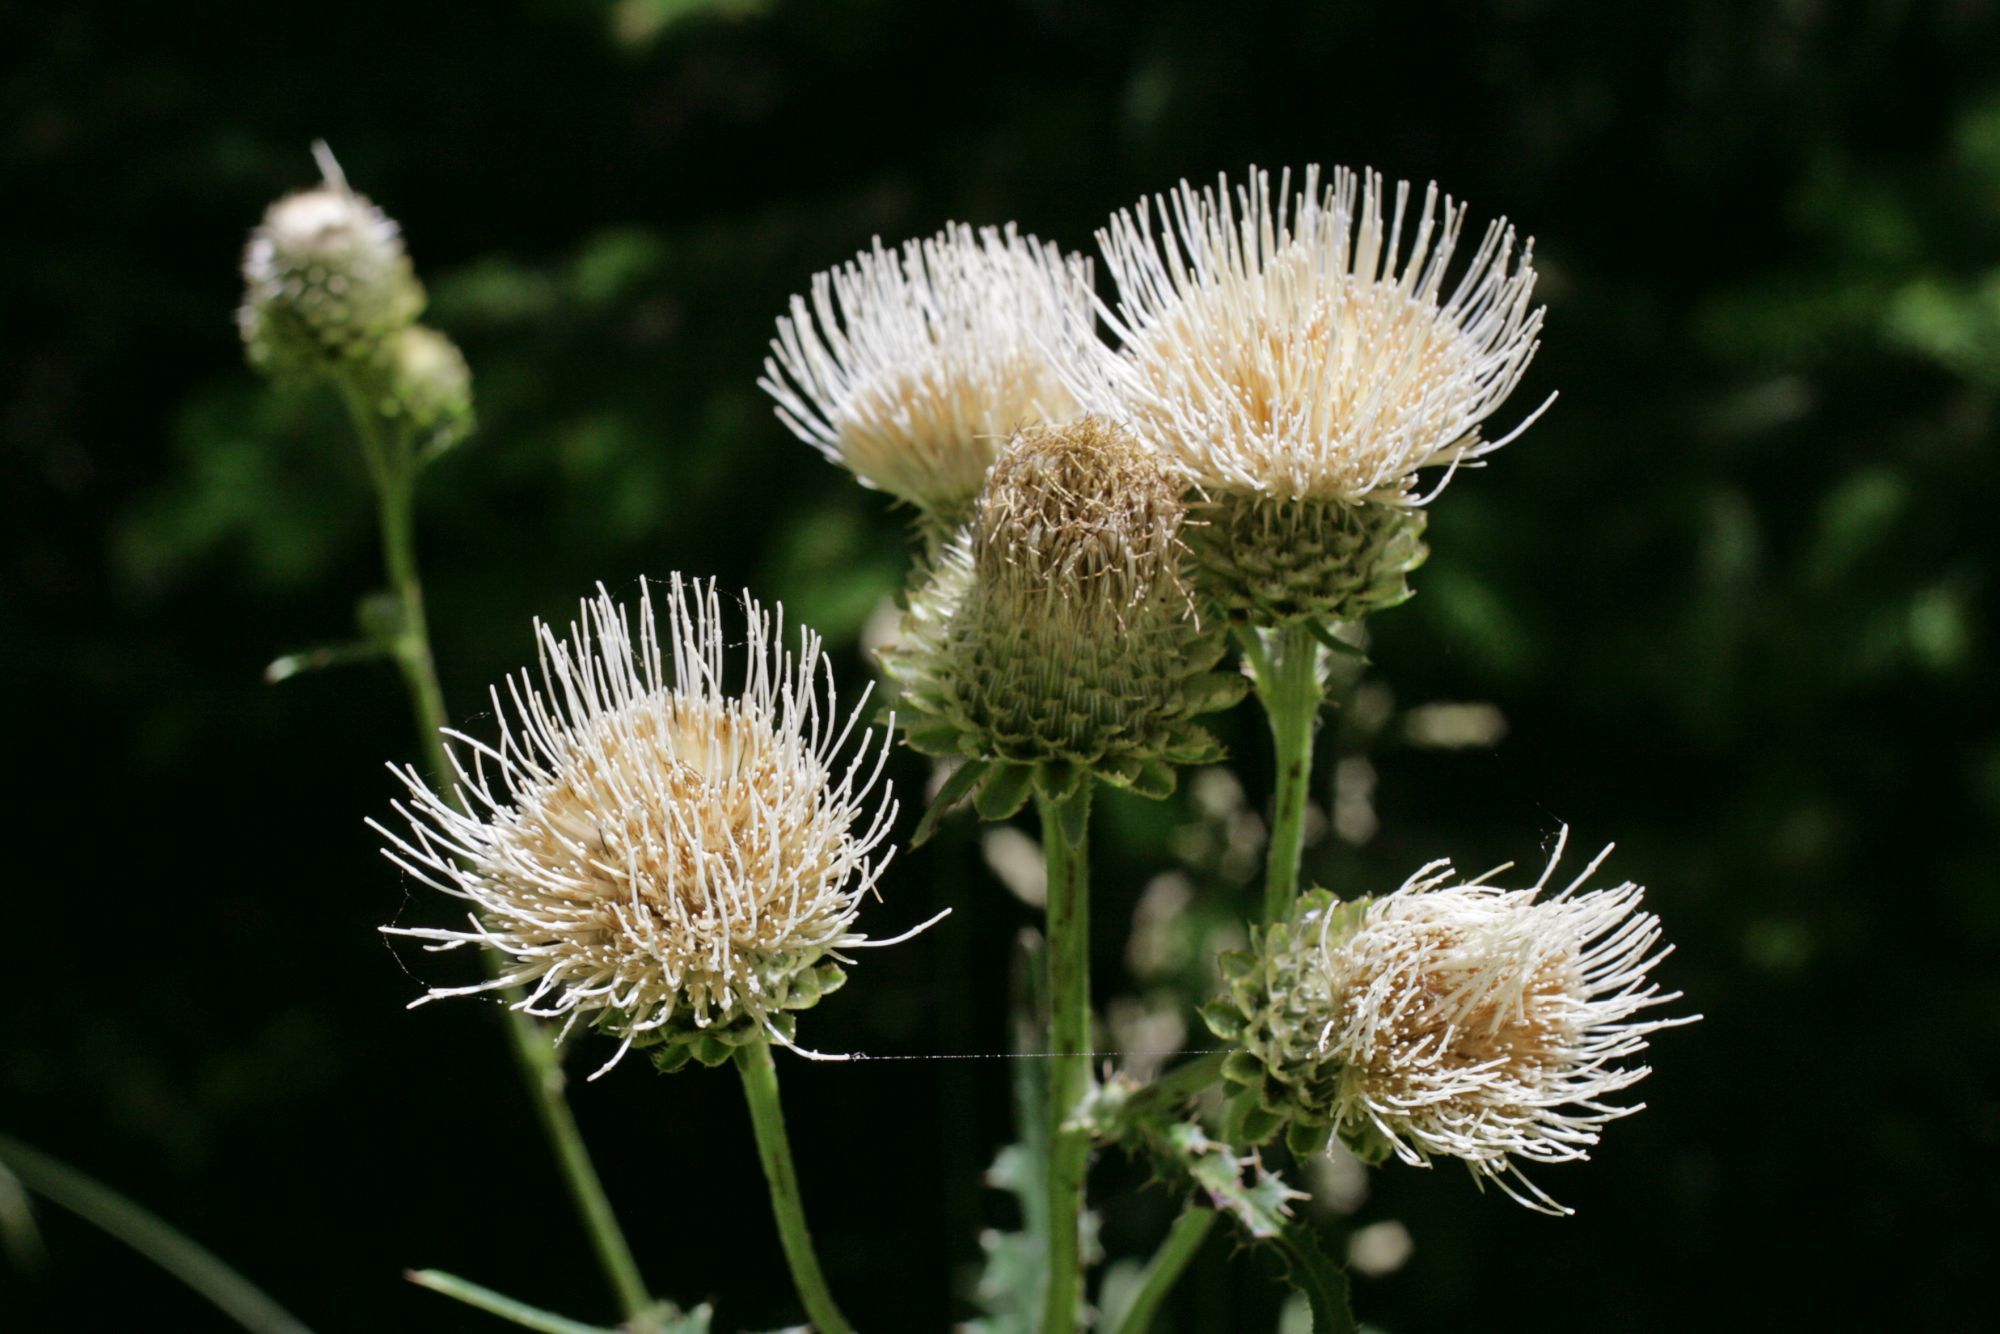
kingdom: Plantae
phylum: Tracheophyta
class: Magnoliopsida
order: Asterales
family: Asteraceae
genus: Cirsium
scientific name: Cirsium remotifolium
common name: Remote-leaf thistle
